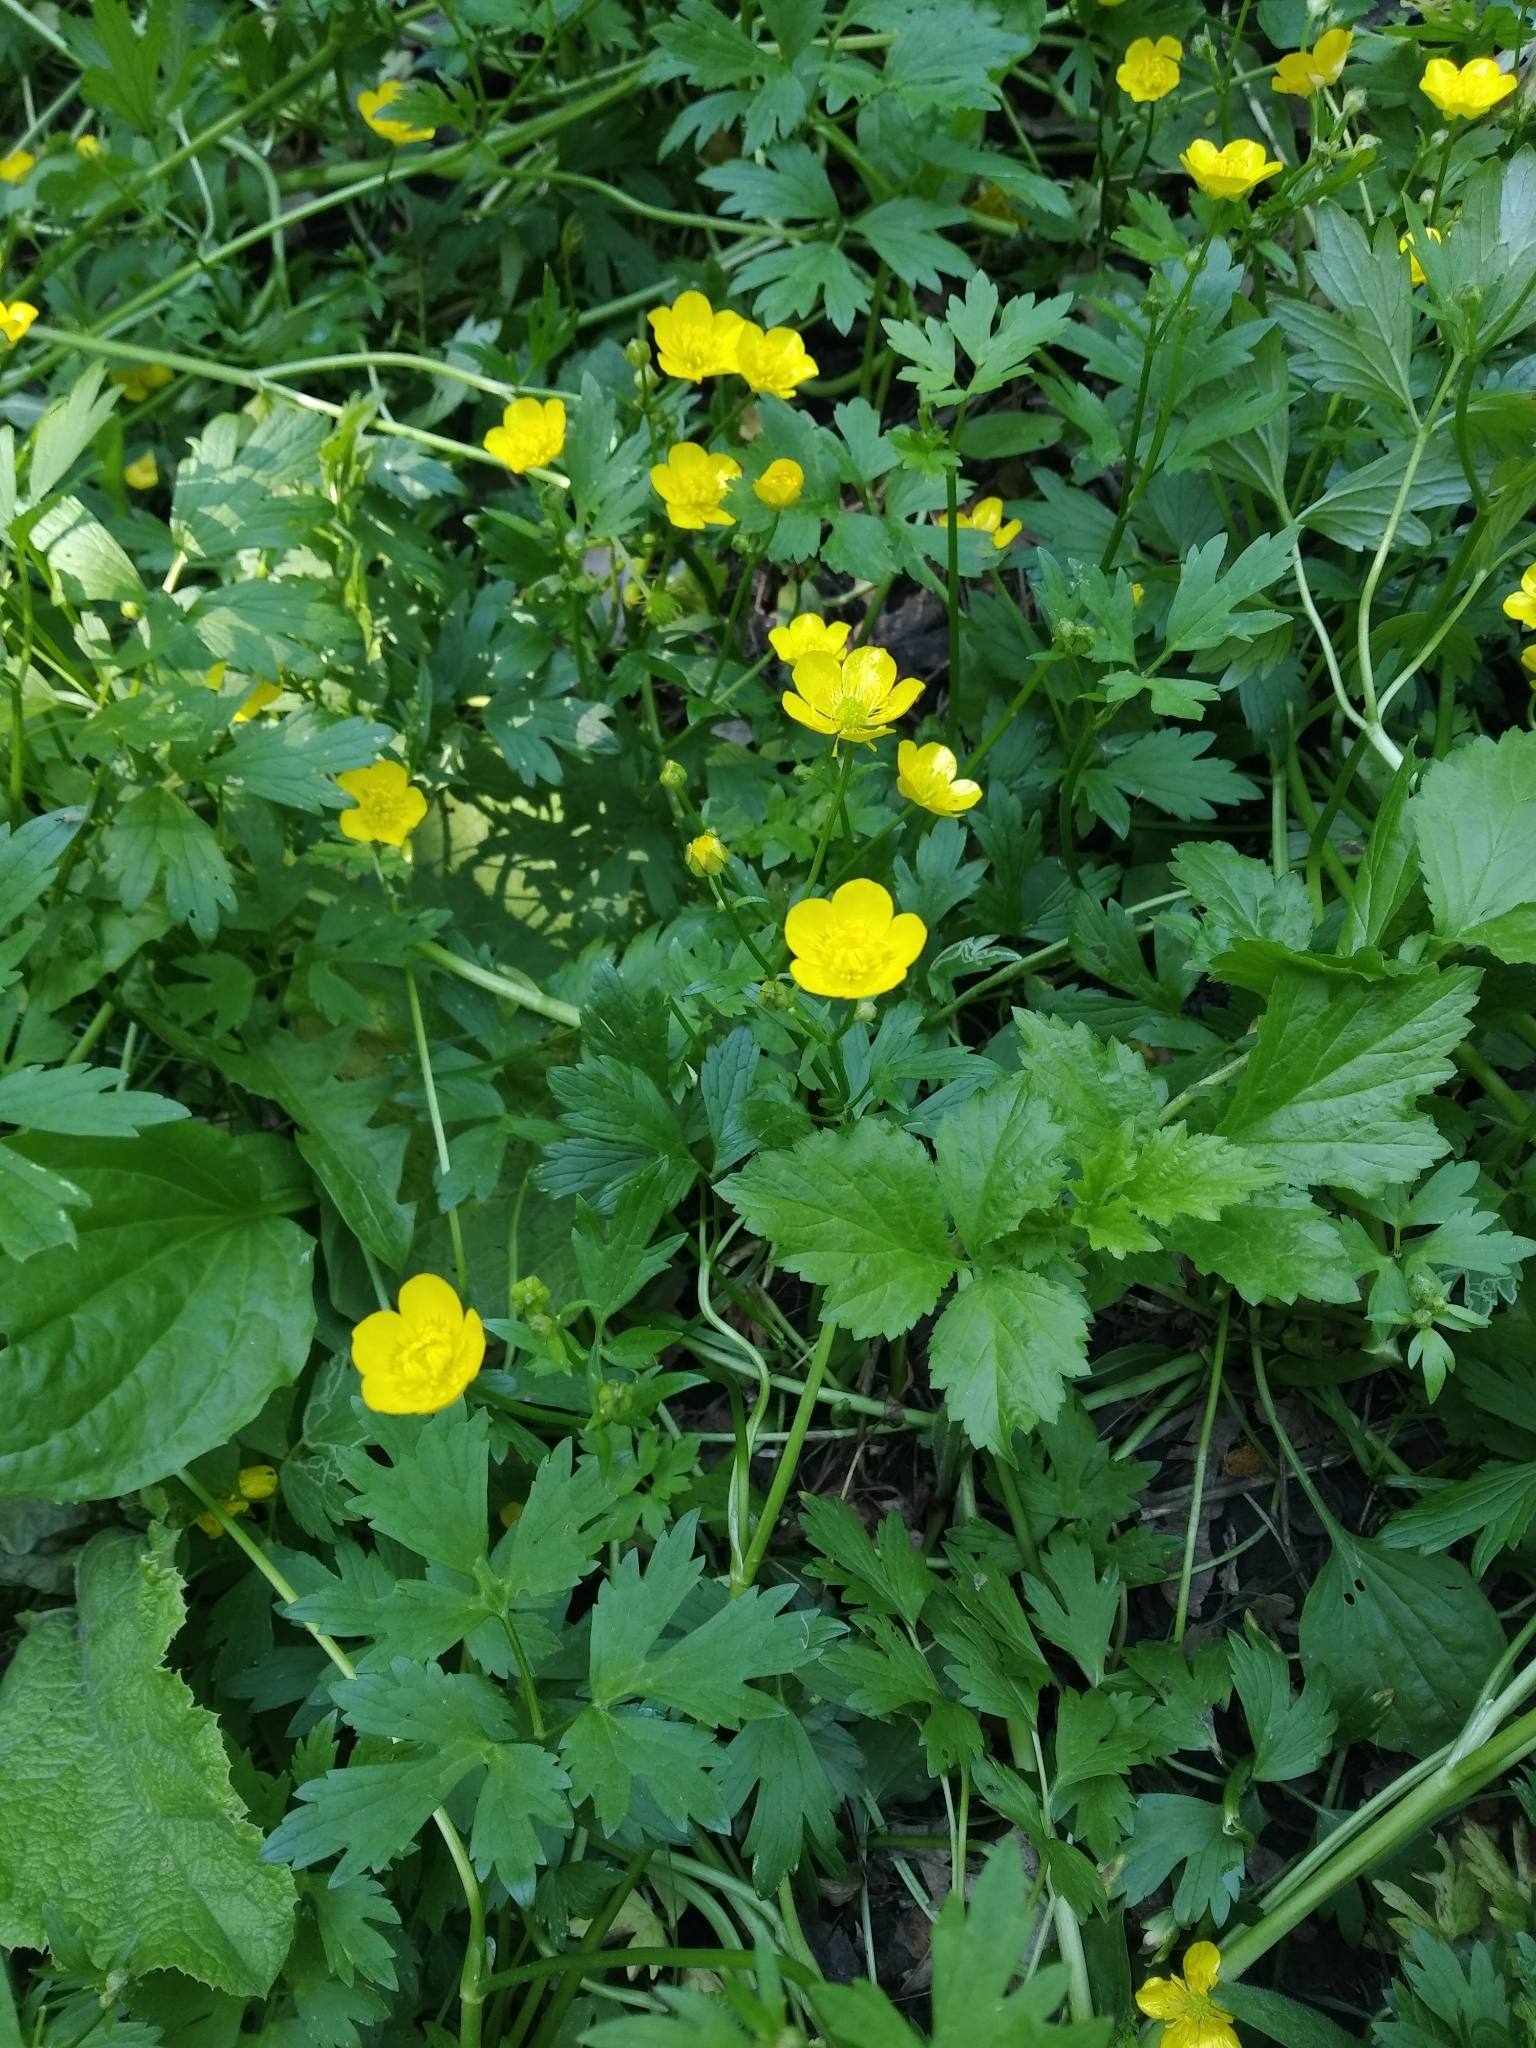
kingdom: Plantae
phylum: Tracheophyta
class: Magnoliopsida
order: Ranunculales
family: Ranunculaceae
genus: Ranunculus
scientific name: Ranunculus repens
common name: Creeping buttercup
